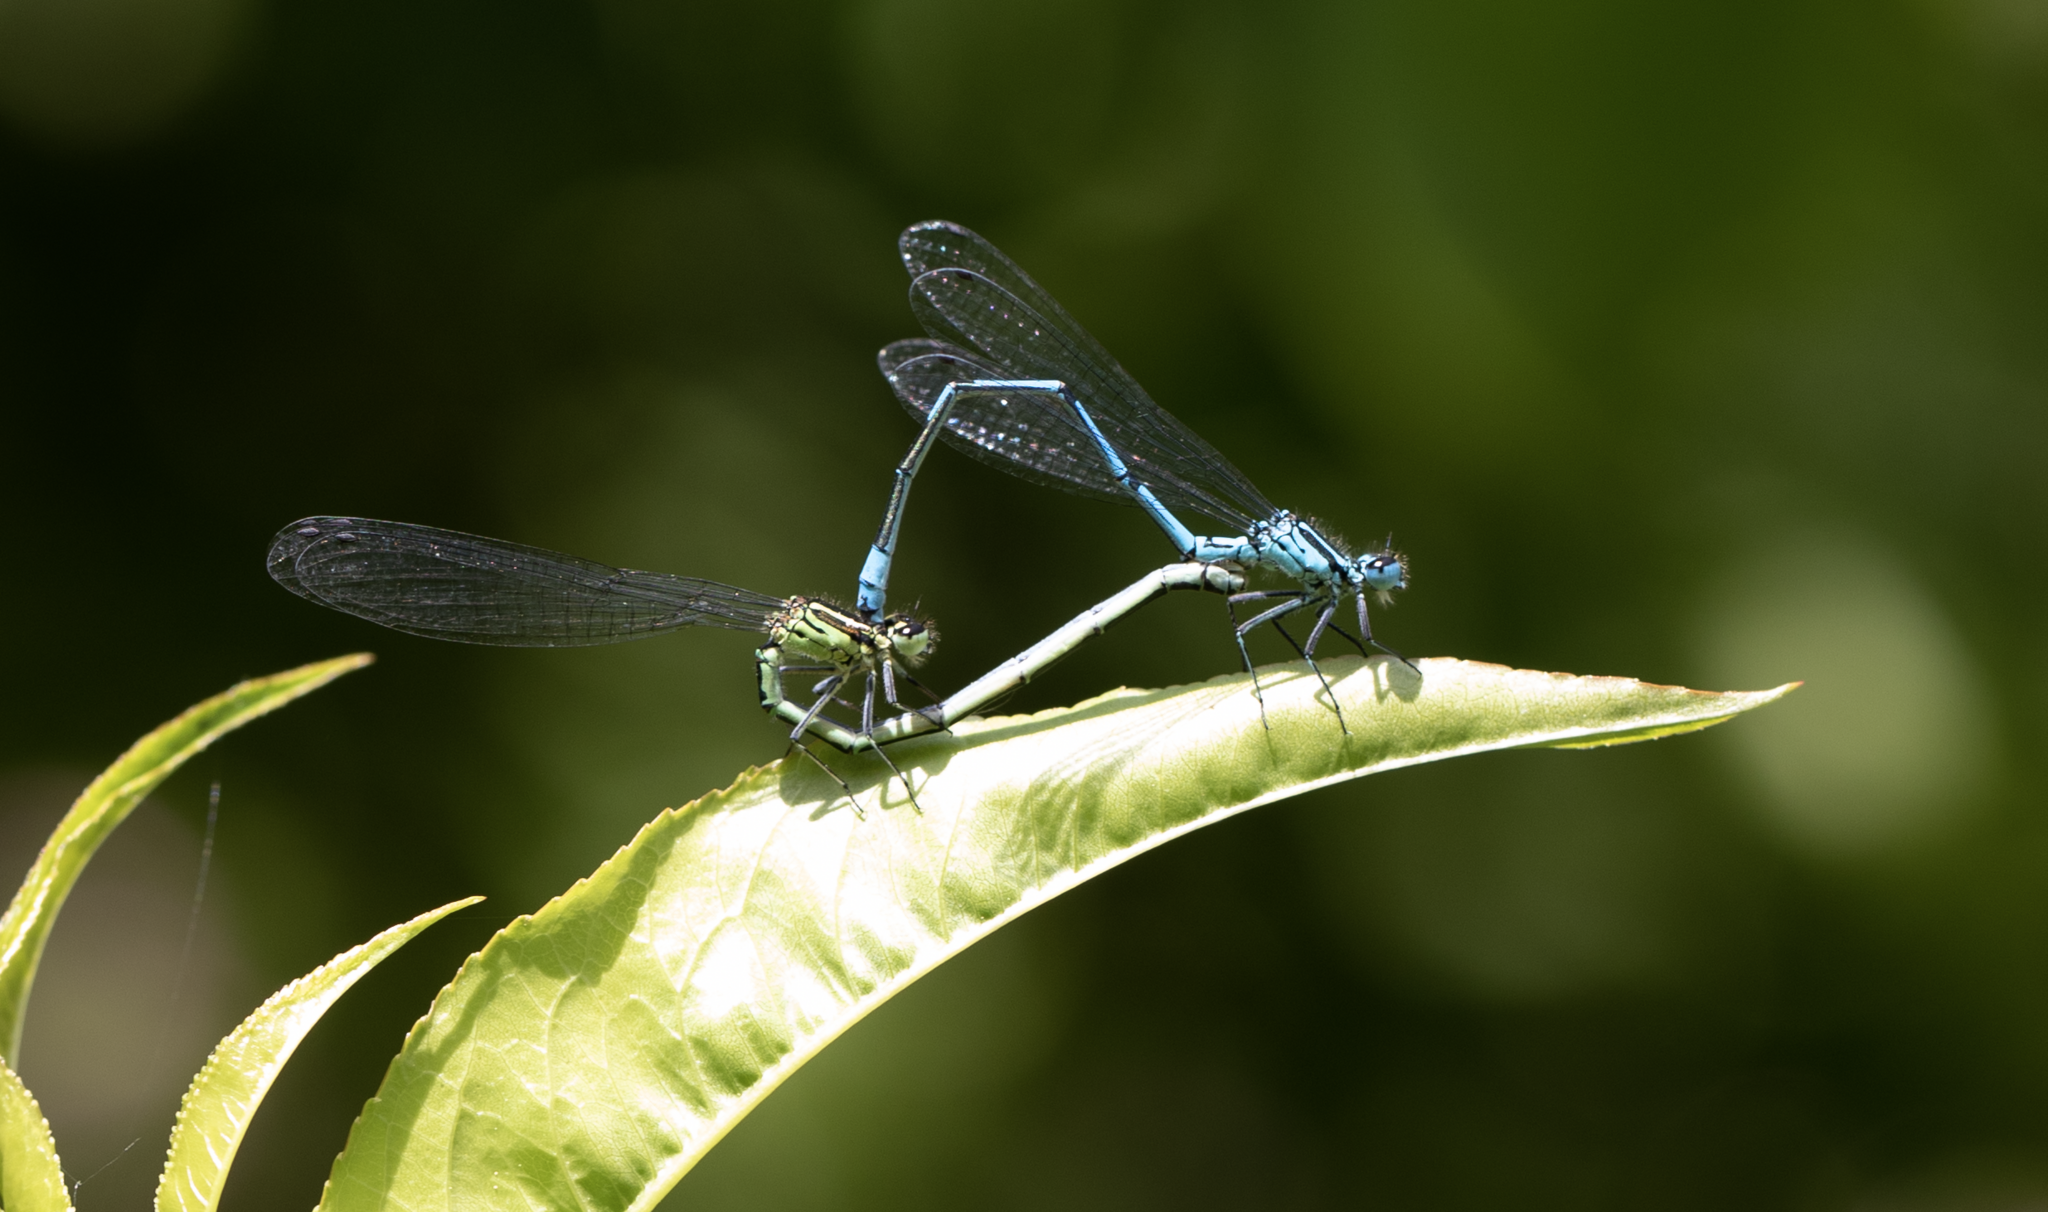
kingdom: Animalia
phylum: Arthropoda
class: Insecta
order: Odonata
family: Coenagrionidae
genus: Coenagrion
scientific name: Coenagrion puella
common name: Azure damselfly
